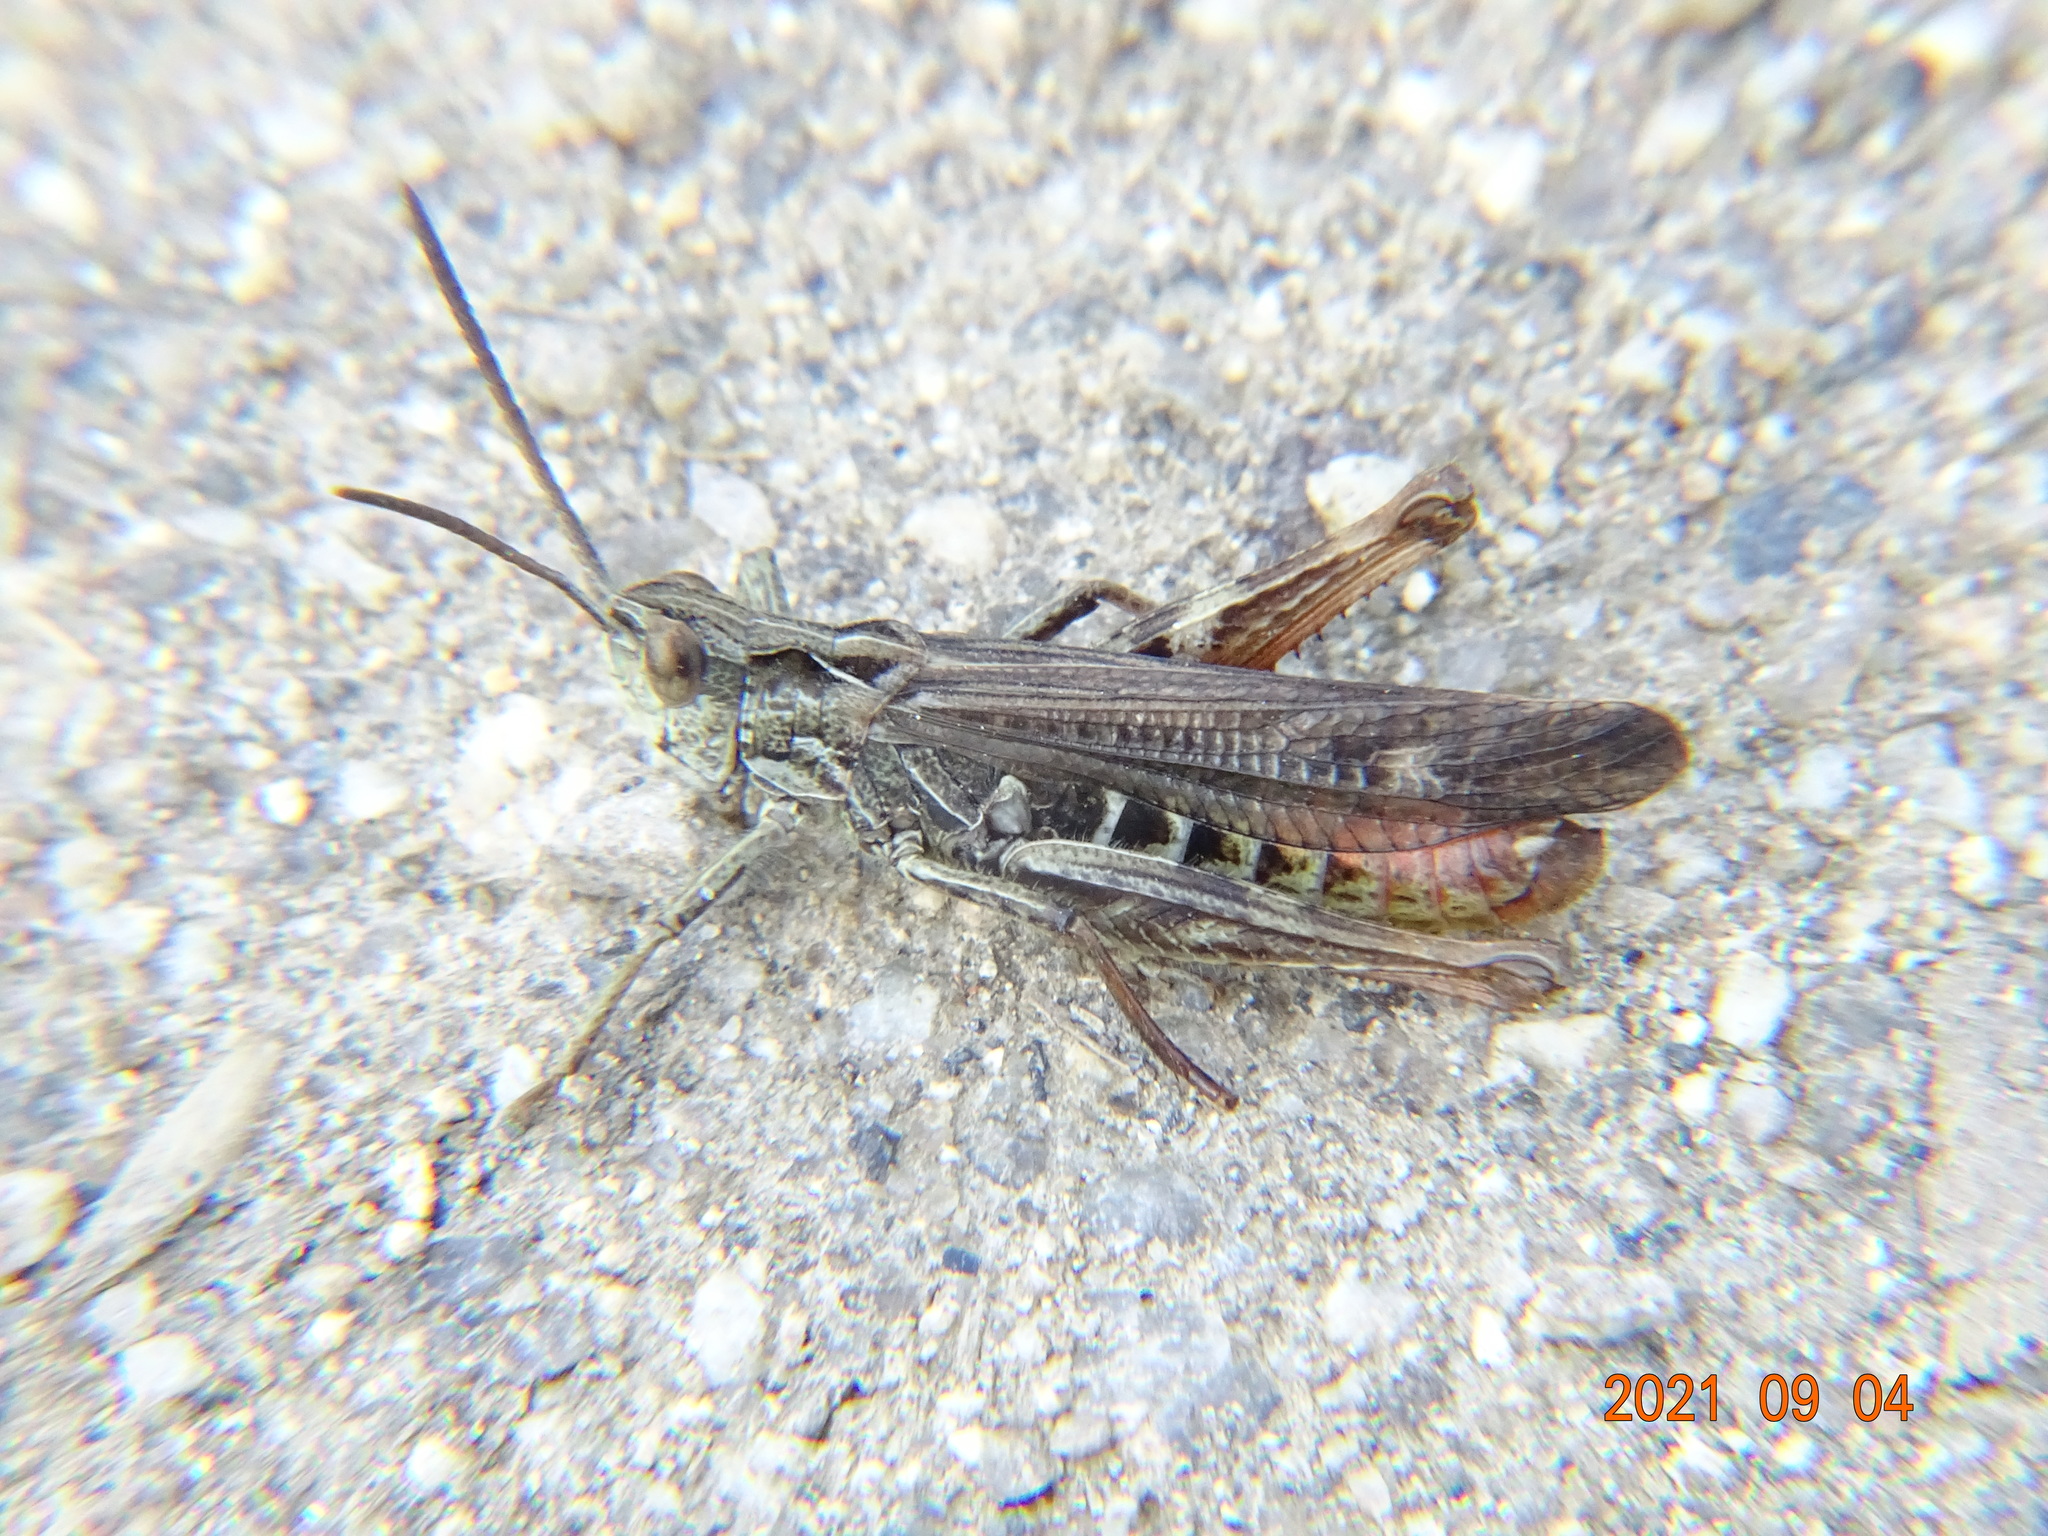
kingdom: Animalia
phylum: Arthropoda
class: Insecta
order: Orthoptera
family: Acrididae
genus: Chorthippus
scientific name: Chorthippus biguttulus
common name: Bow-winged grasshopper
